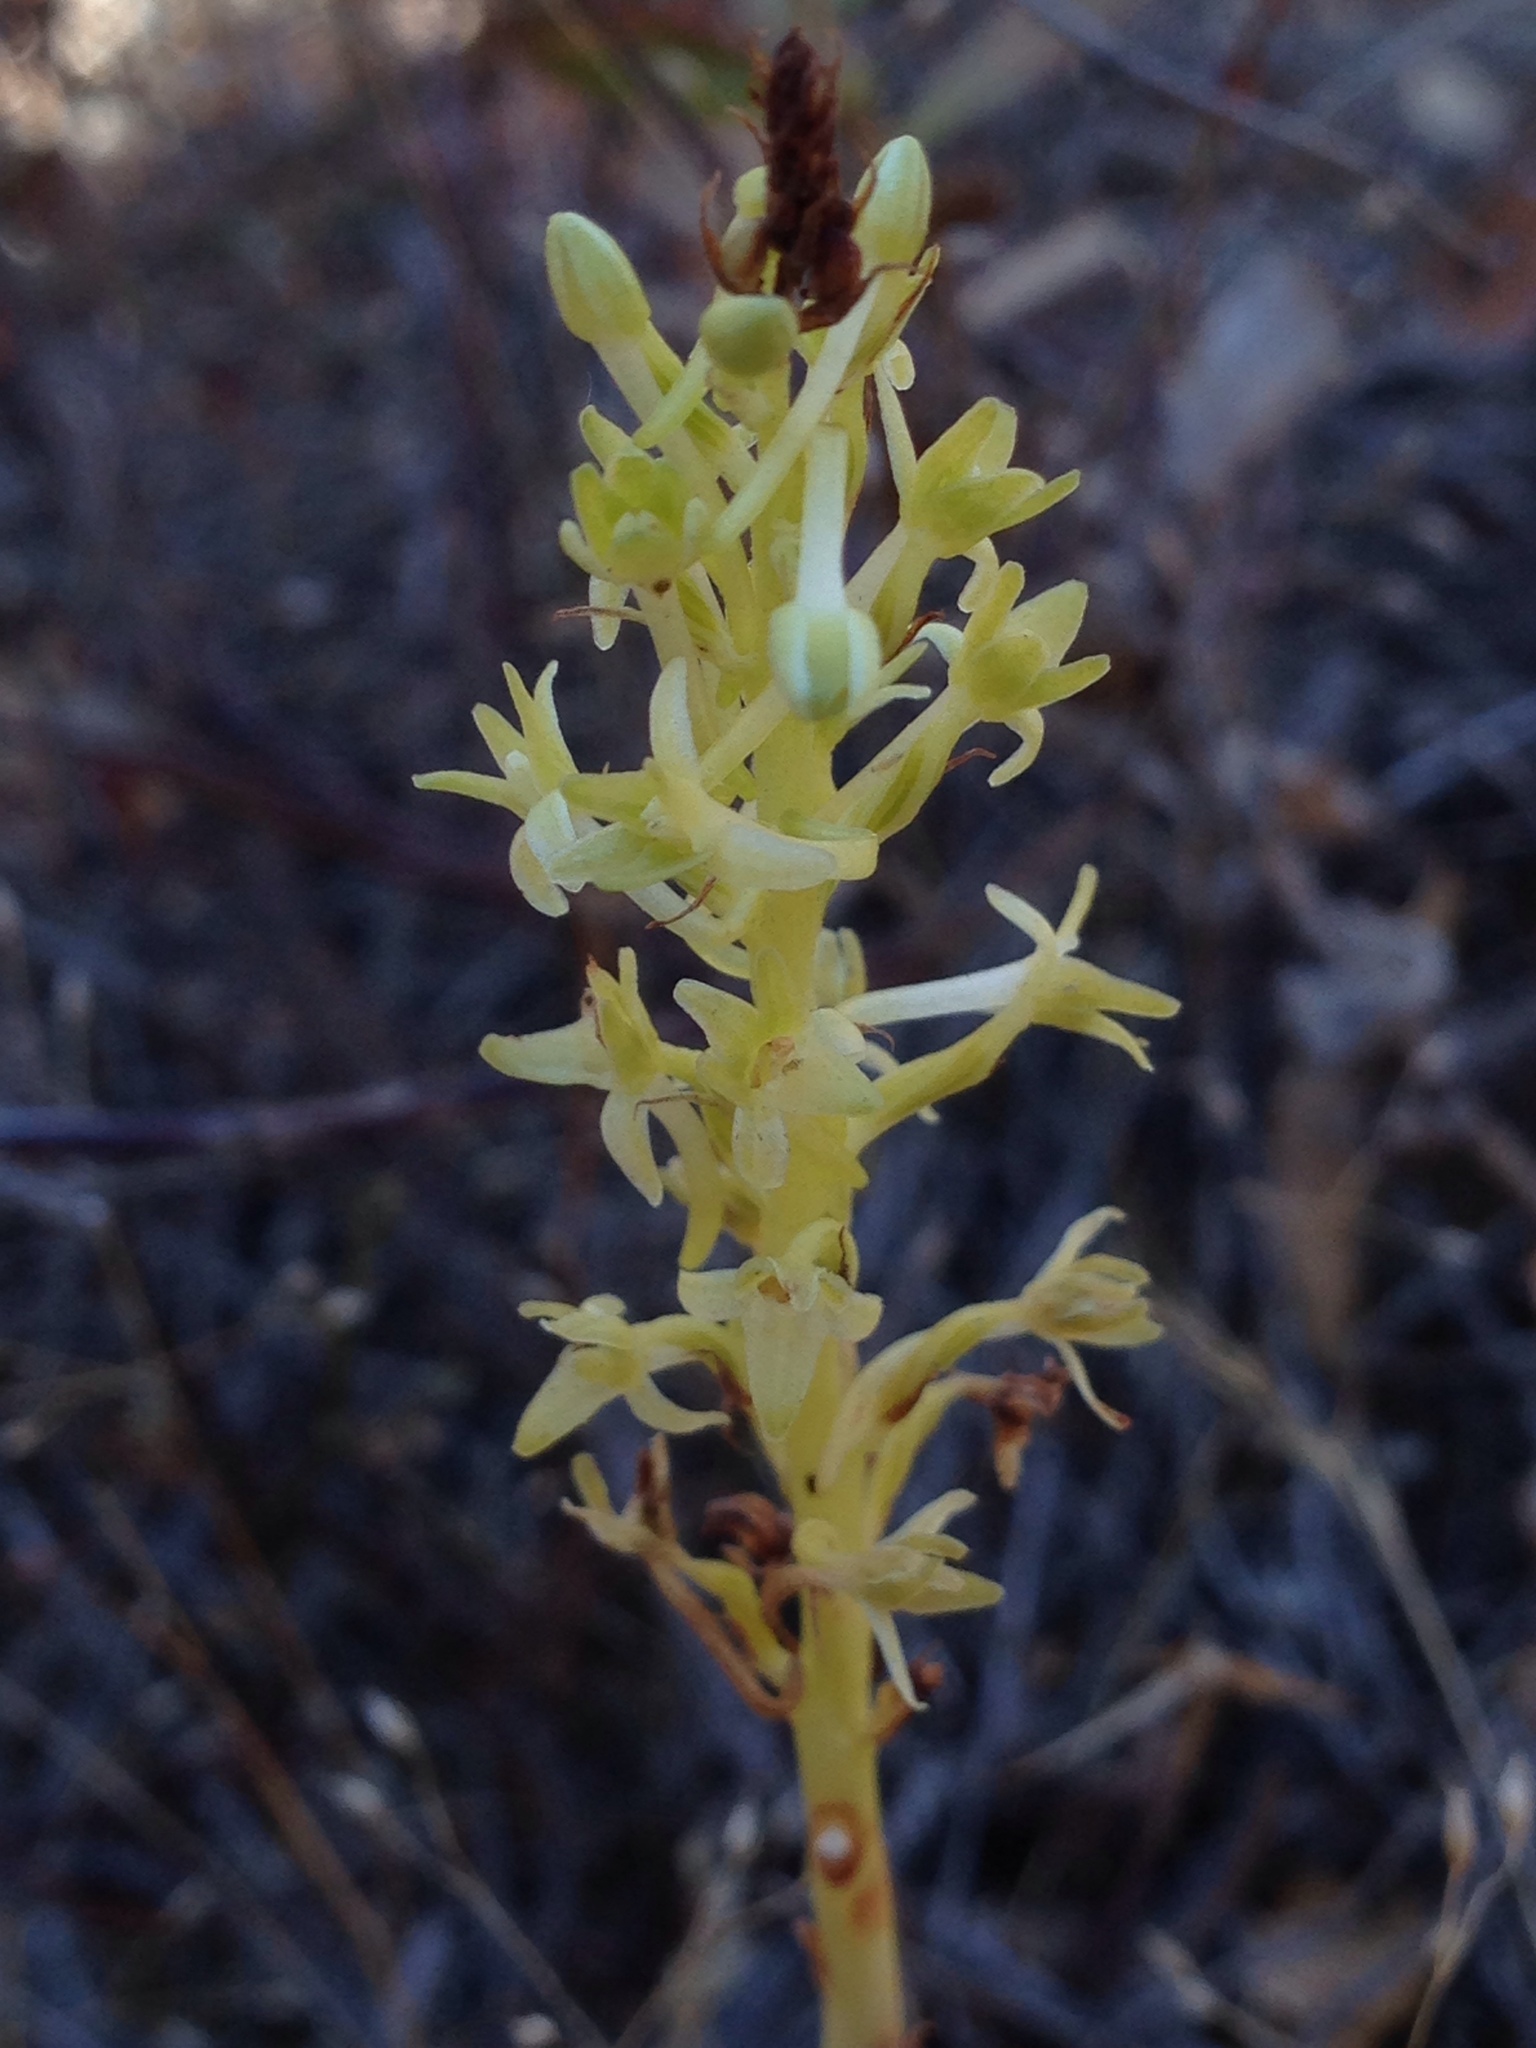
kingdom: Plantae
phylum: Tracheophyta
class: Liliopsida
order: Asparagales
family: Orchidaceae
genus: Platanthera
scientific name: Platanthera elongata
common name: Dense-flowered rein orchid
